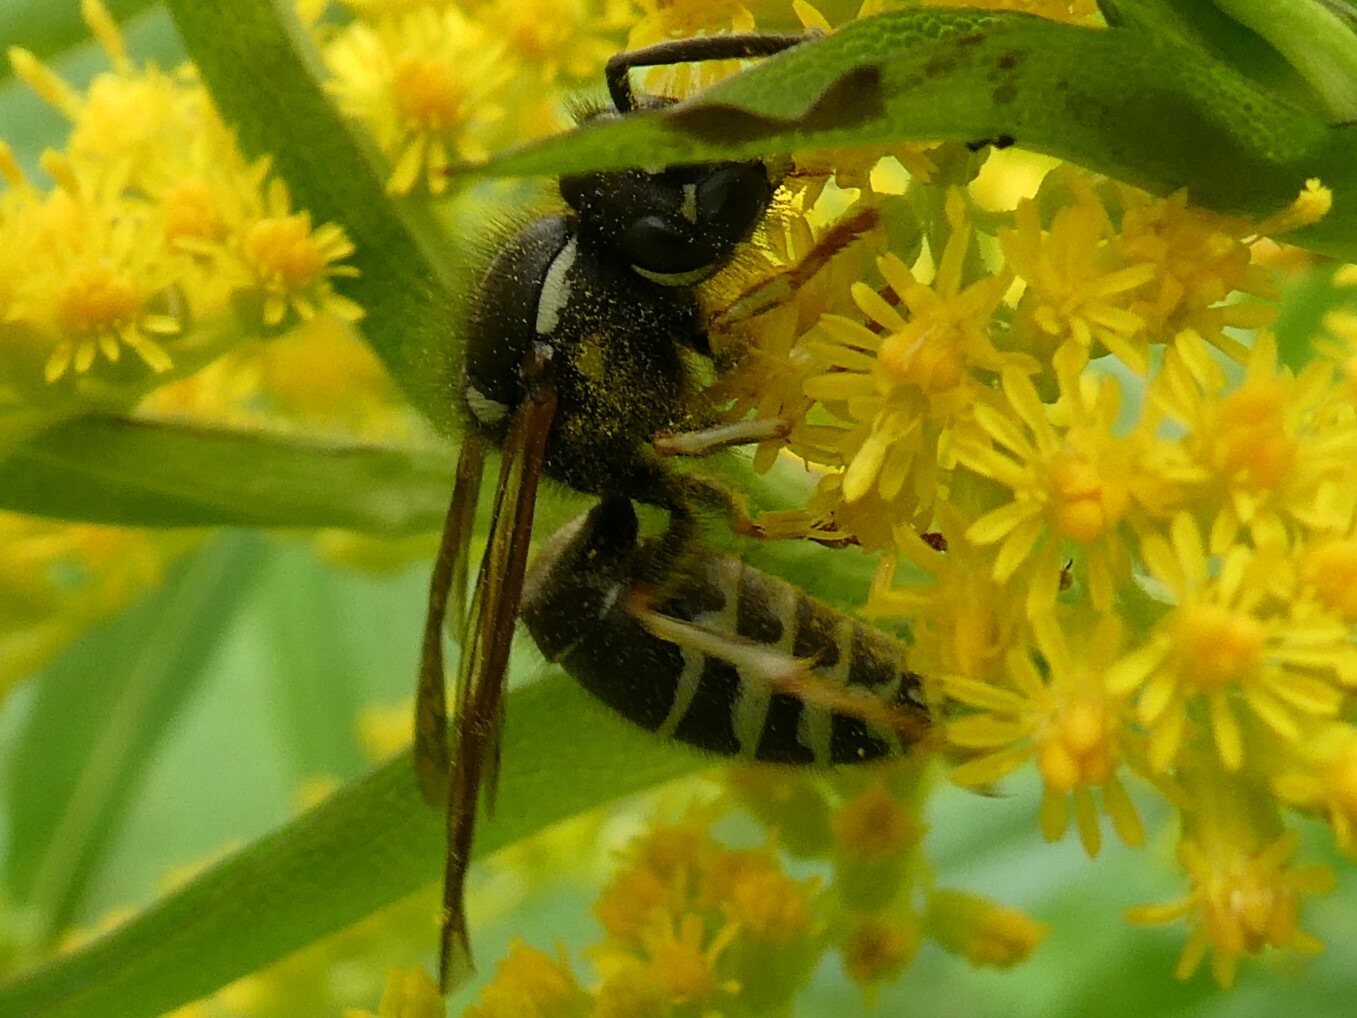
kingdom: Animalia
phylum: Arthropoda
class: Insecta
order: Hymenoptera
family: Vespidae
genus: Vespula
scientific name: Vespula consobrina
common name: Blackjacket
